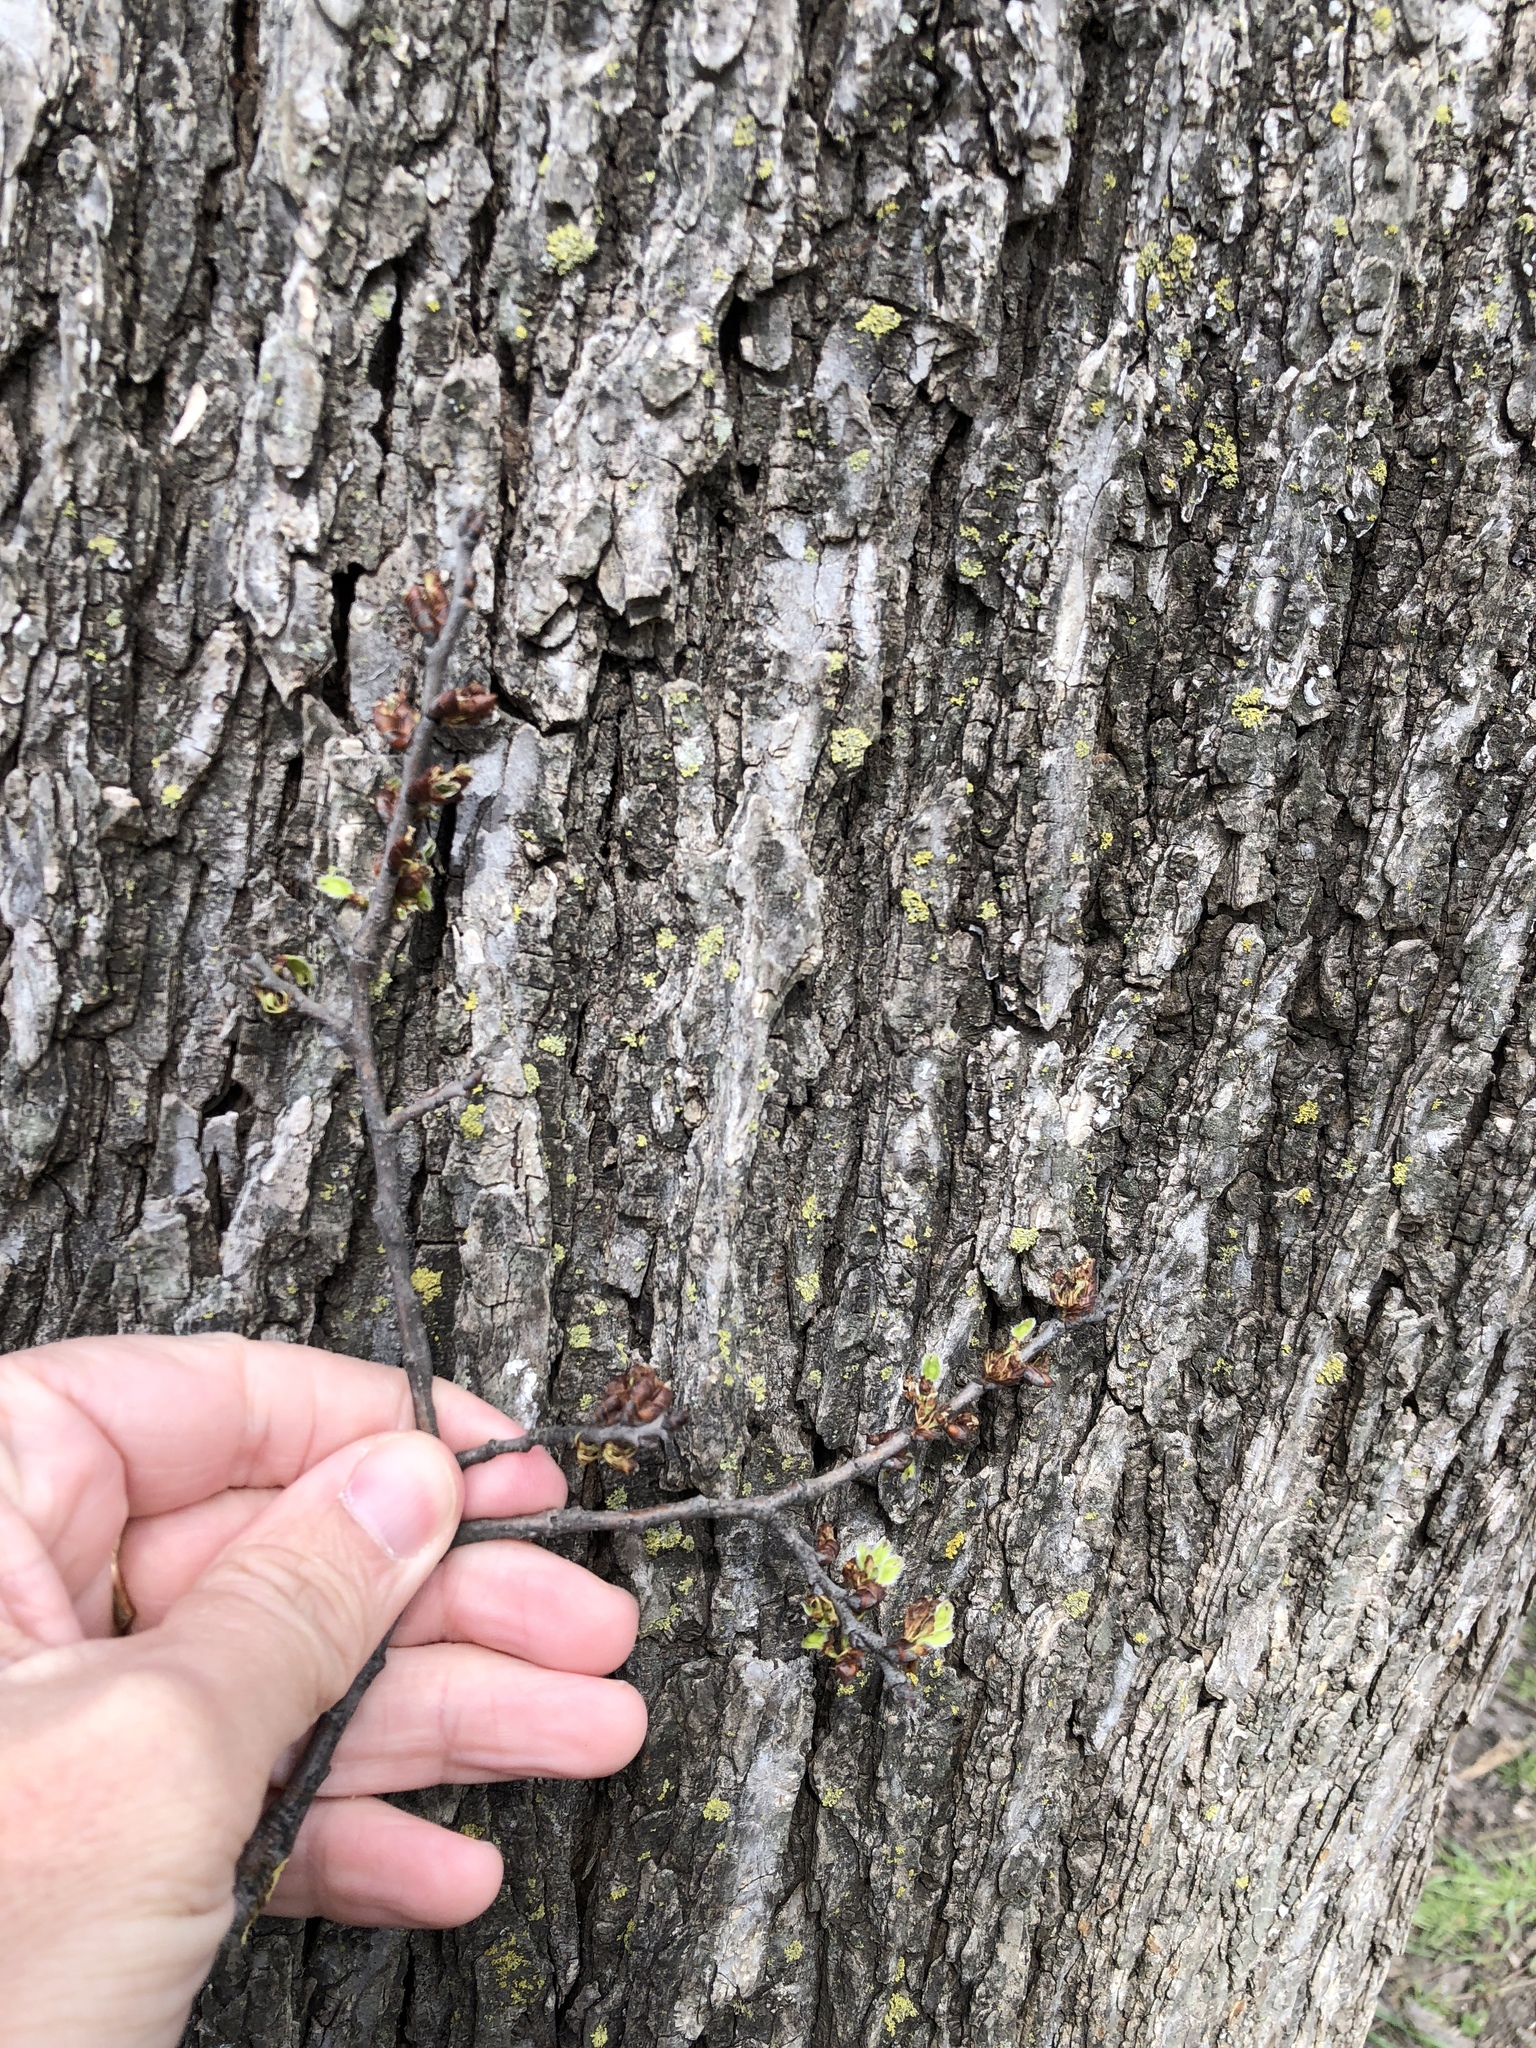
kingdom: Plantae
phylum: Tracheophyta
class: Magnoliopsida
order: Rosales
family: Ulmaceae
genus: Ulmus
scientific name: Ulmus americana
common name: American elm
